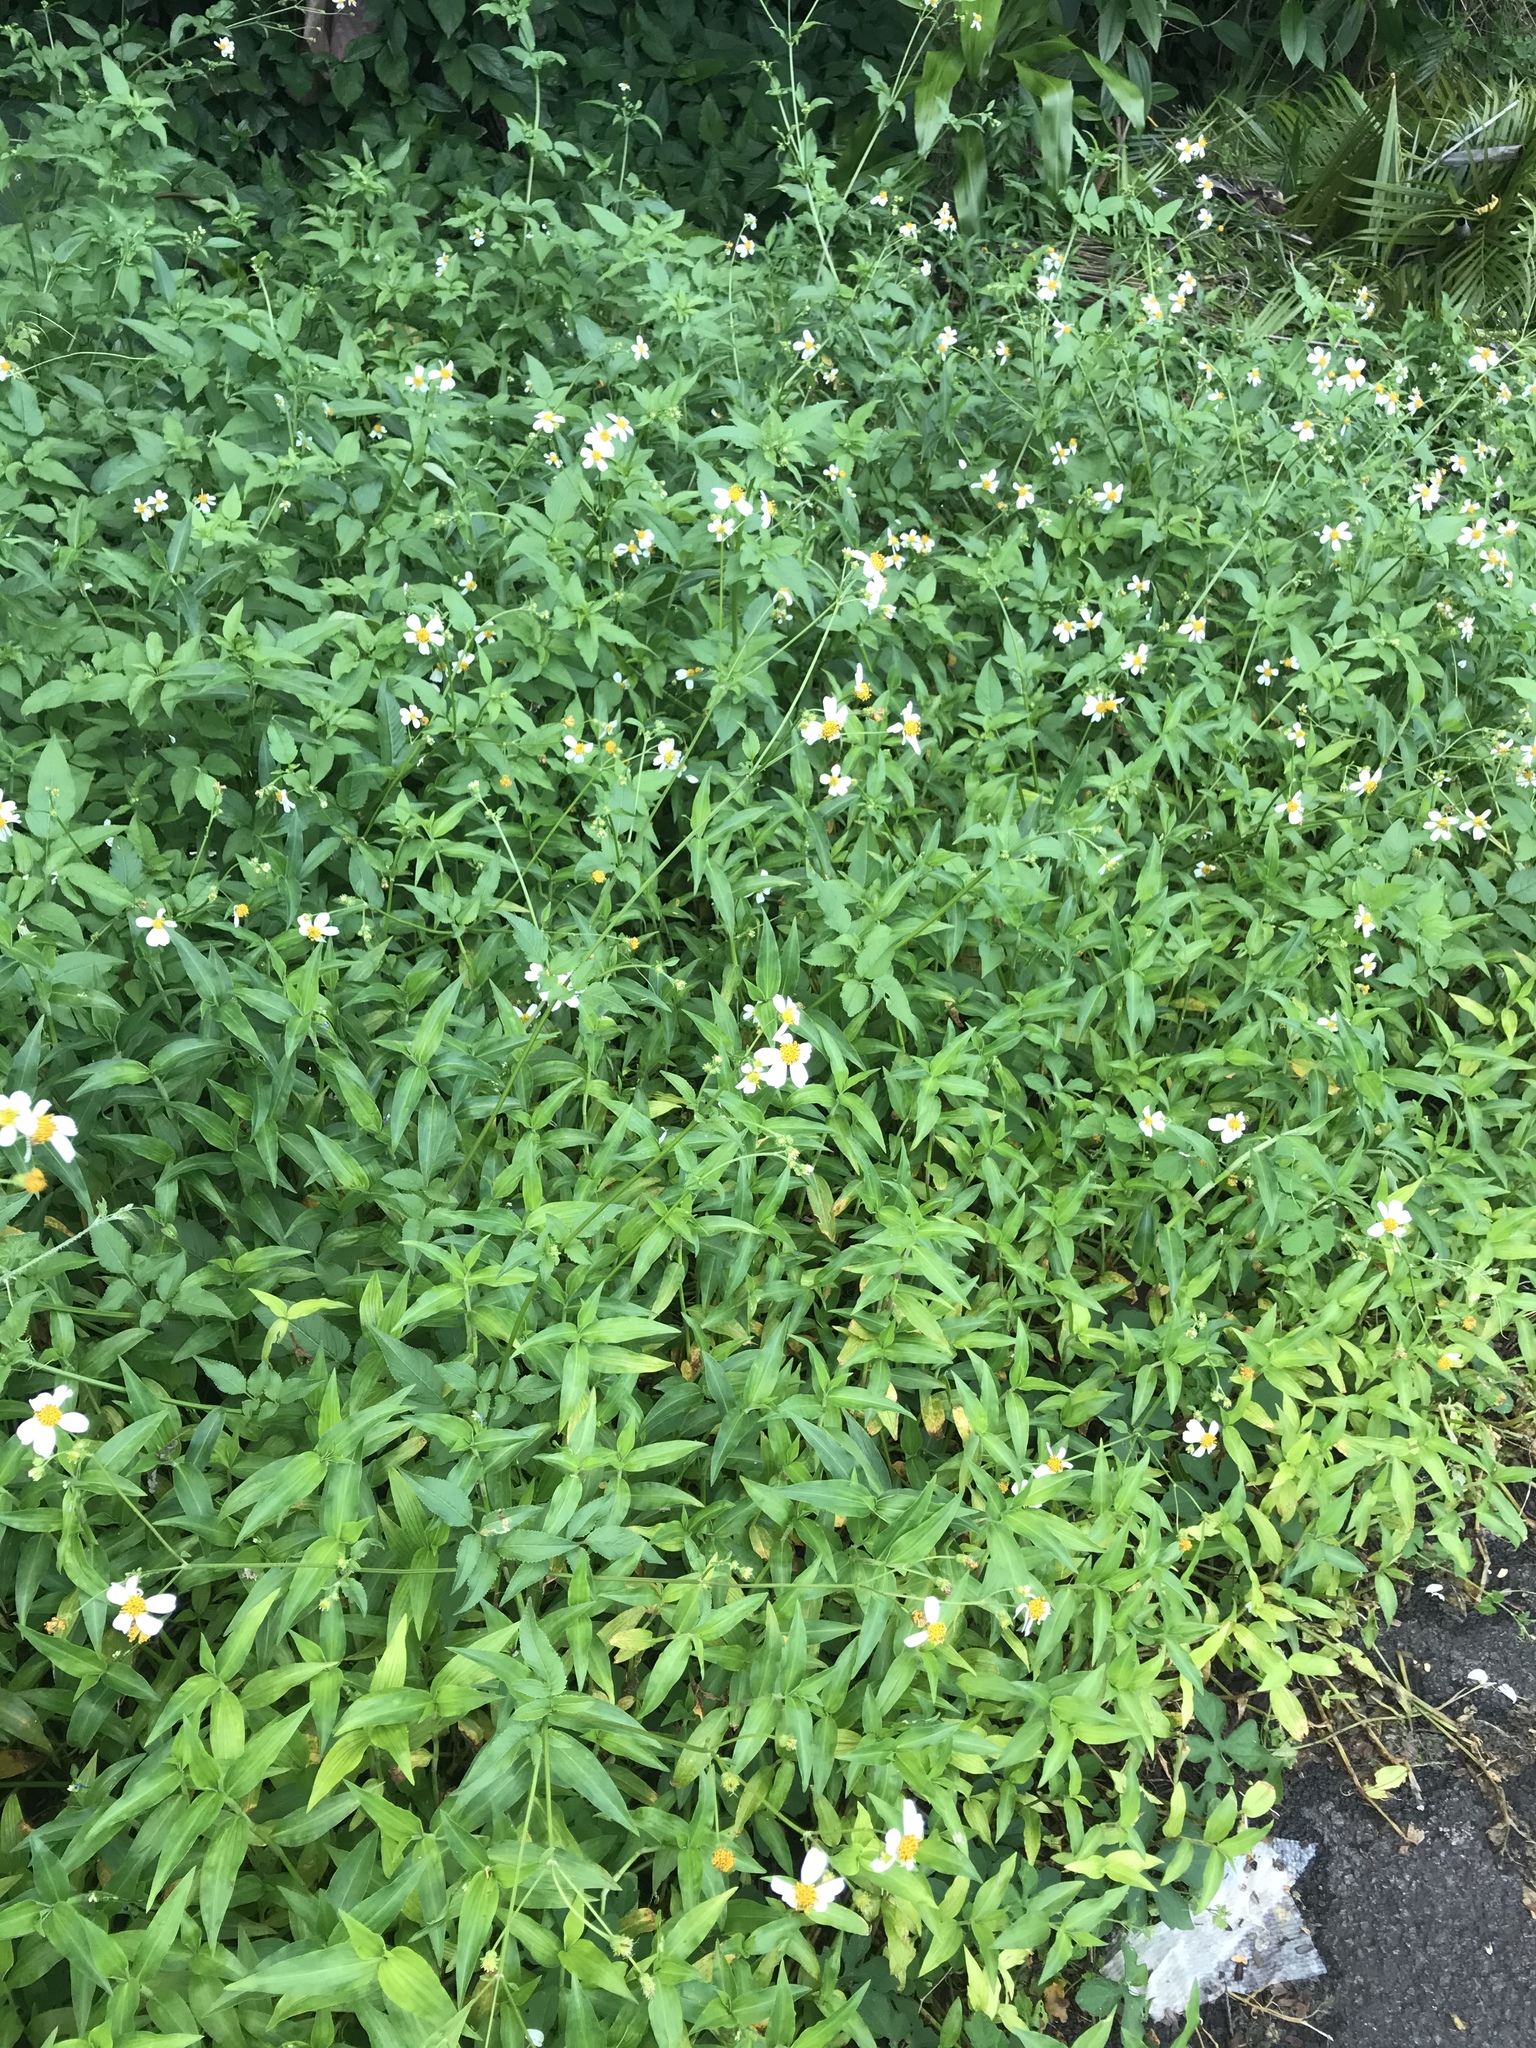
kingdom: Plantae
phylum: Tracheophyta
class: Magnoliopsida
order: Asterales
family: Asteraceae
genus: Bidens
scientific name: Bidens alba
